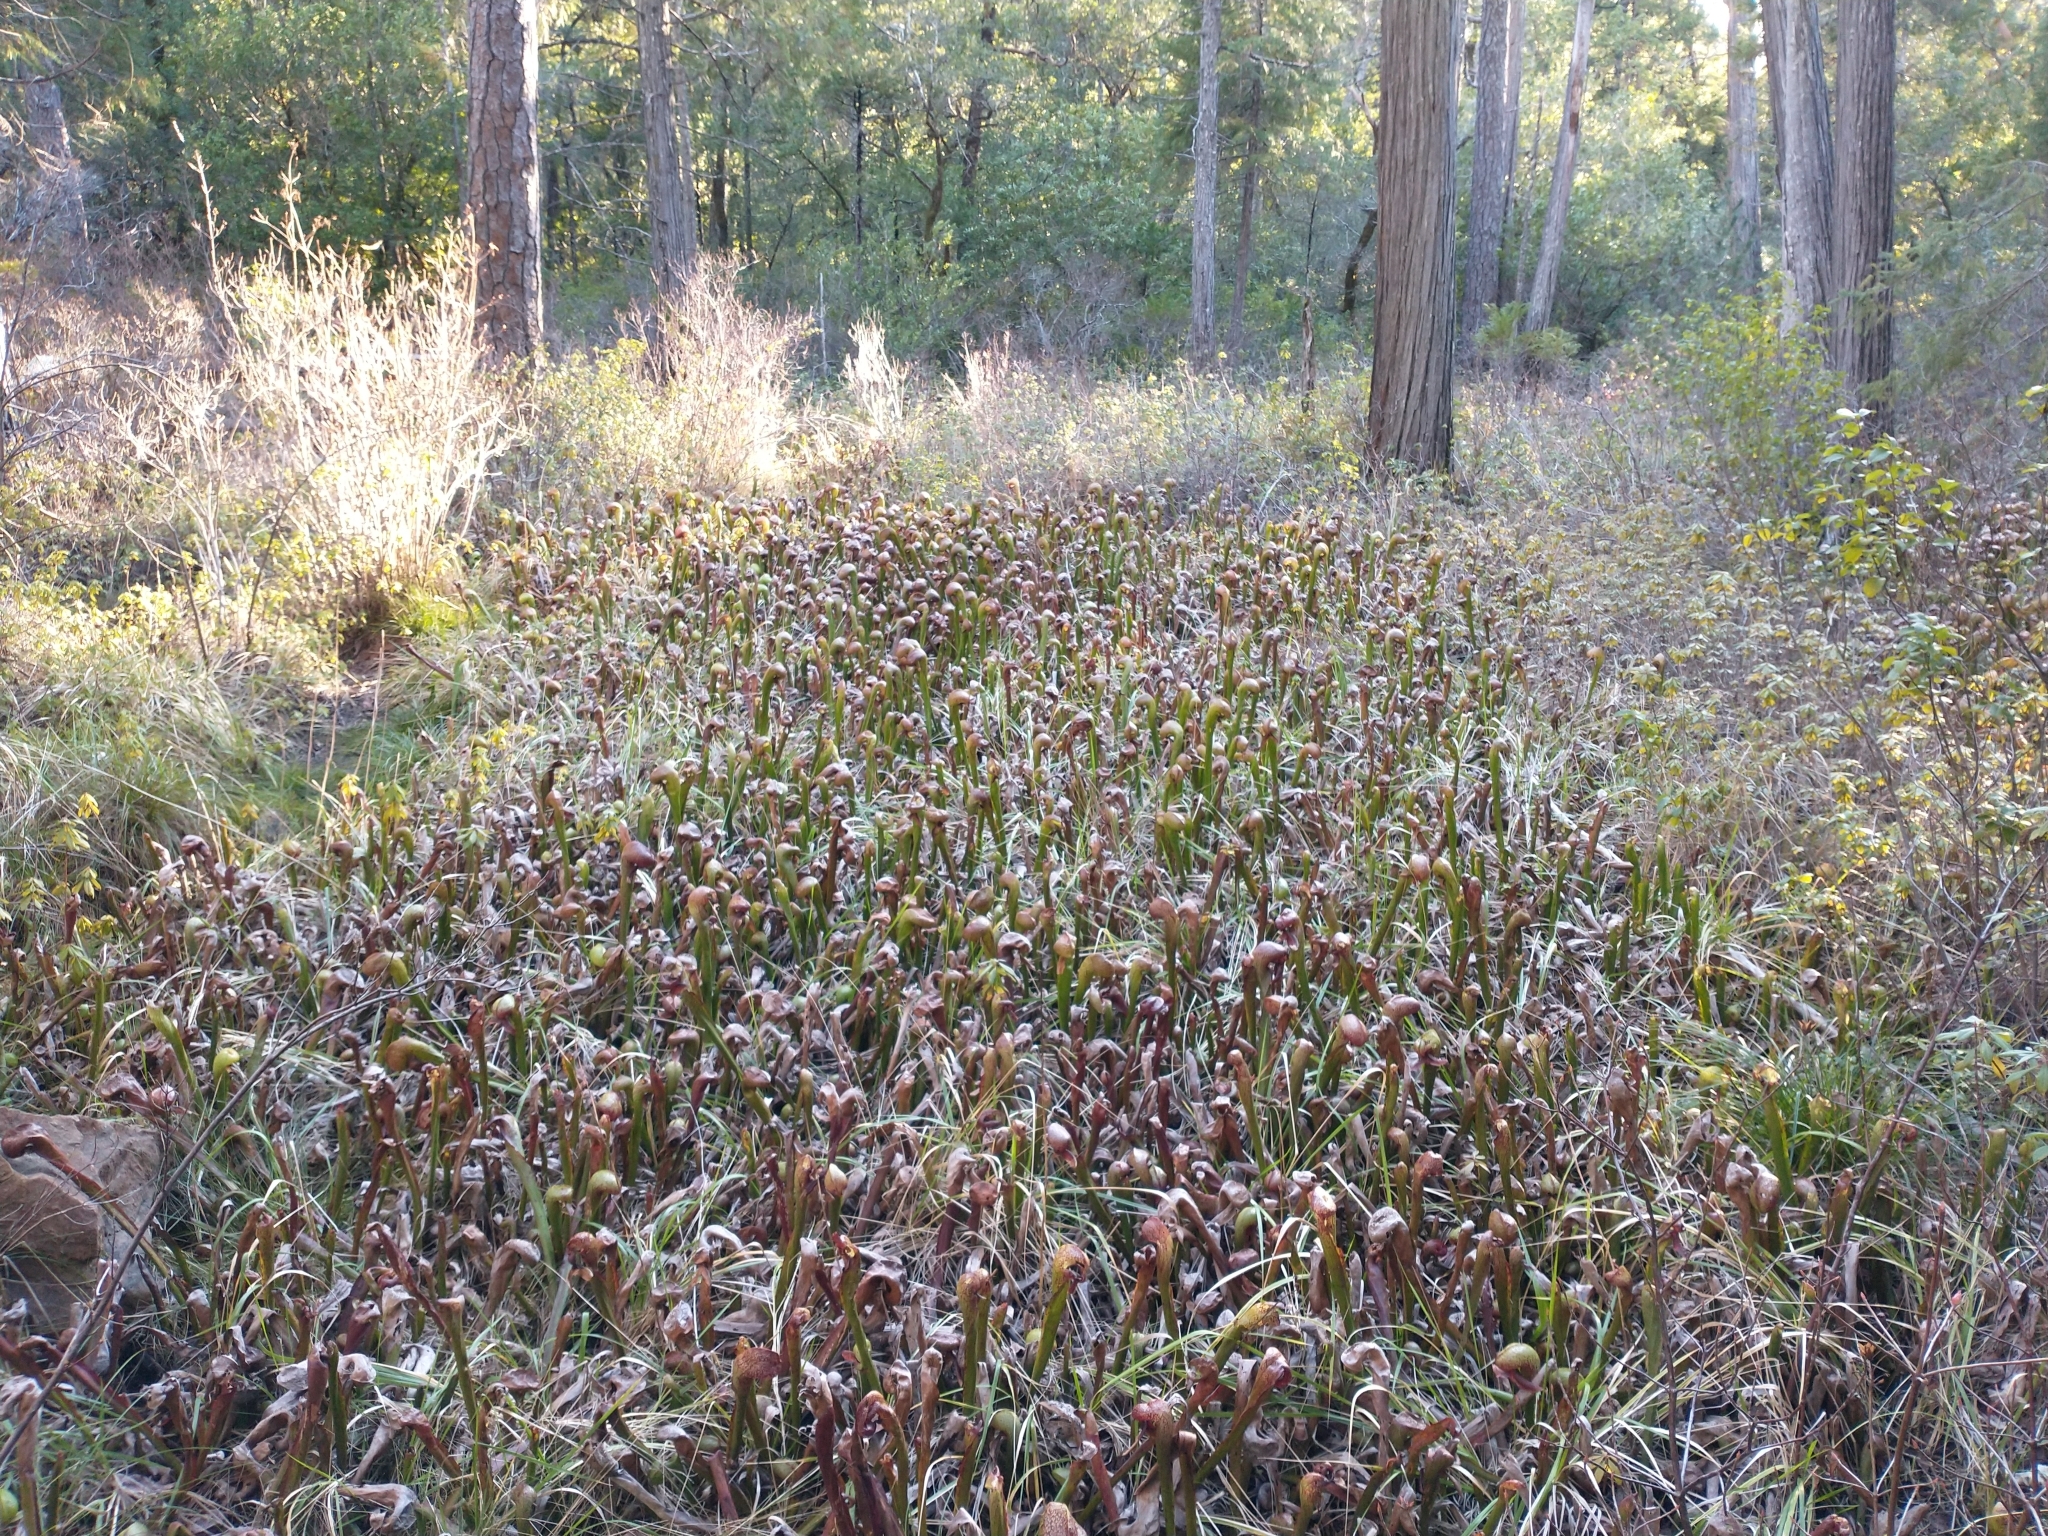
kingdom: Plantae
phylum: Tracheophyta
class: Magnoliopsida
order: Ericales
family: Sarraceniaceae
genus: Darlingtonia
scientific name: Darlingtonia californica
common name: California pitcher plant
